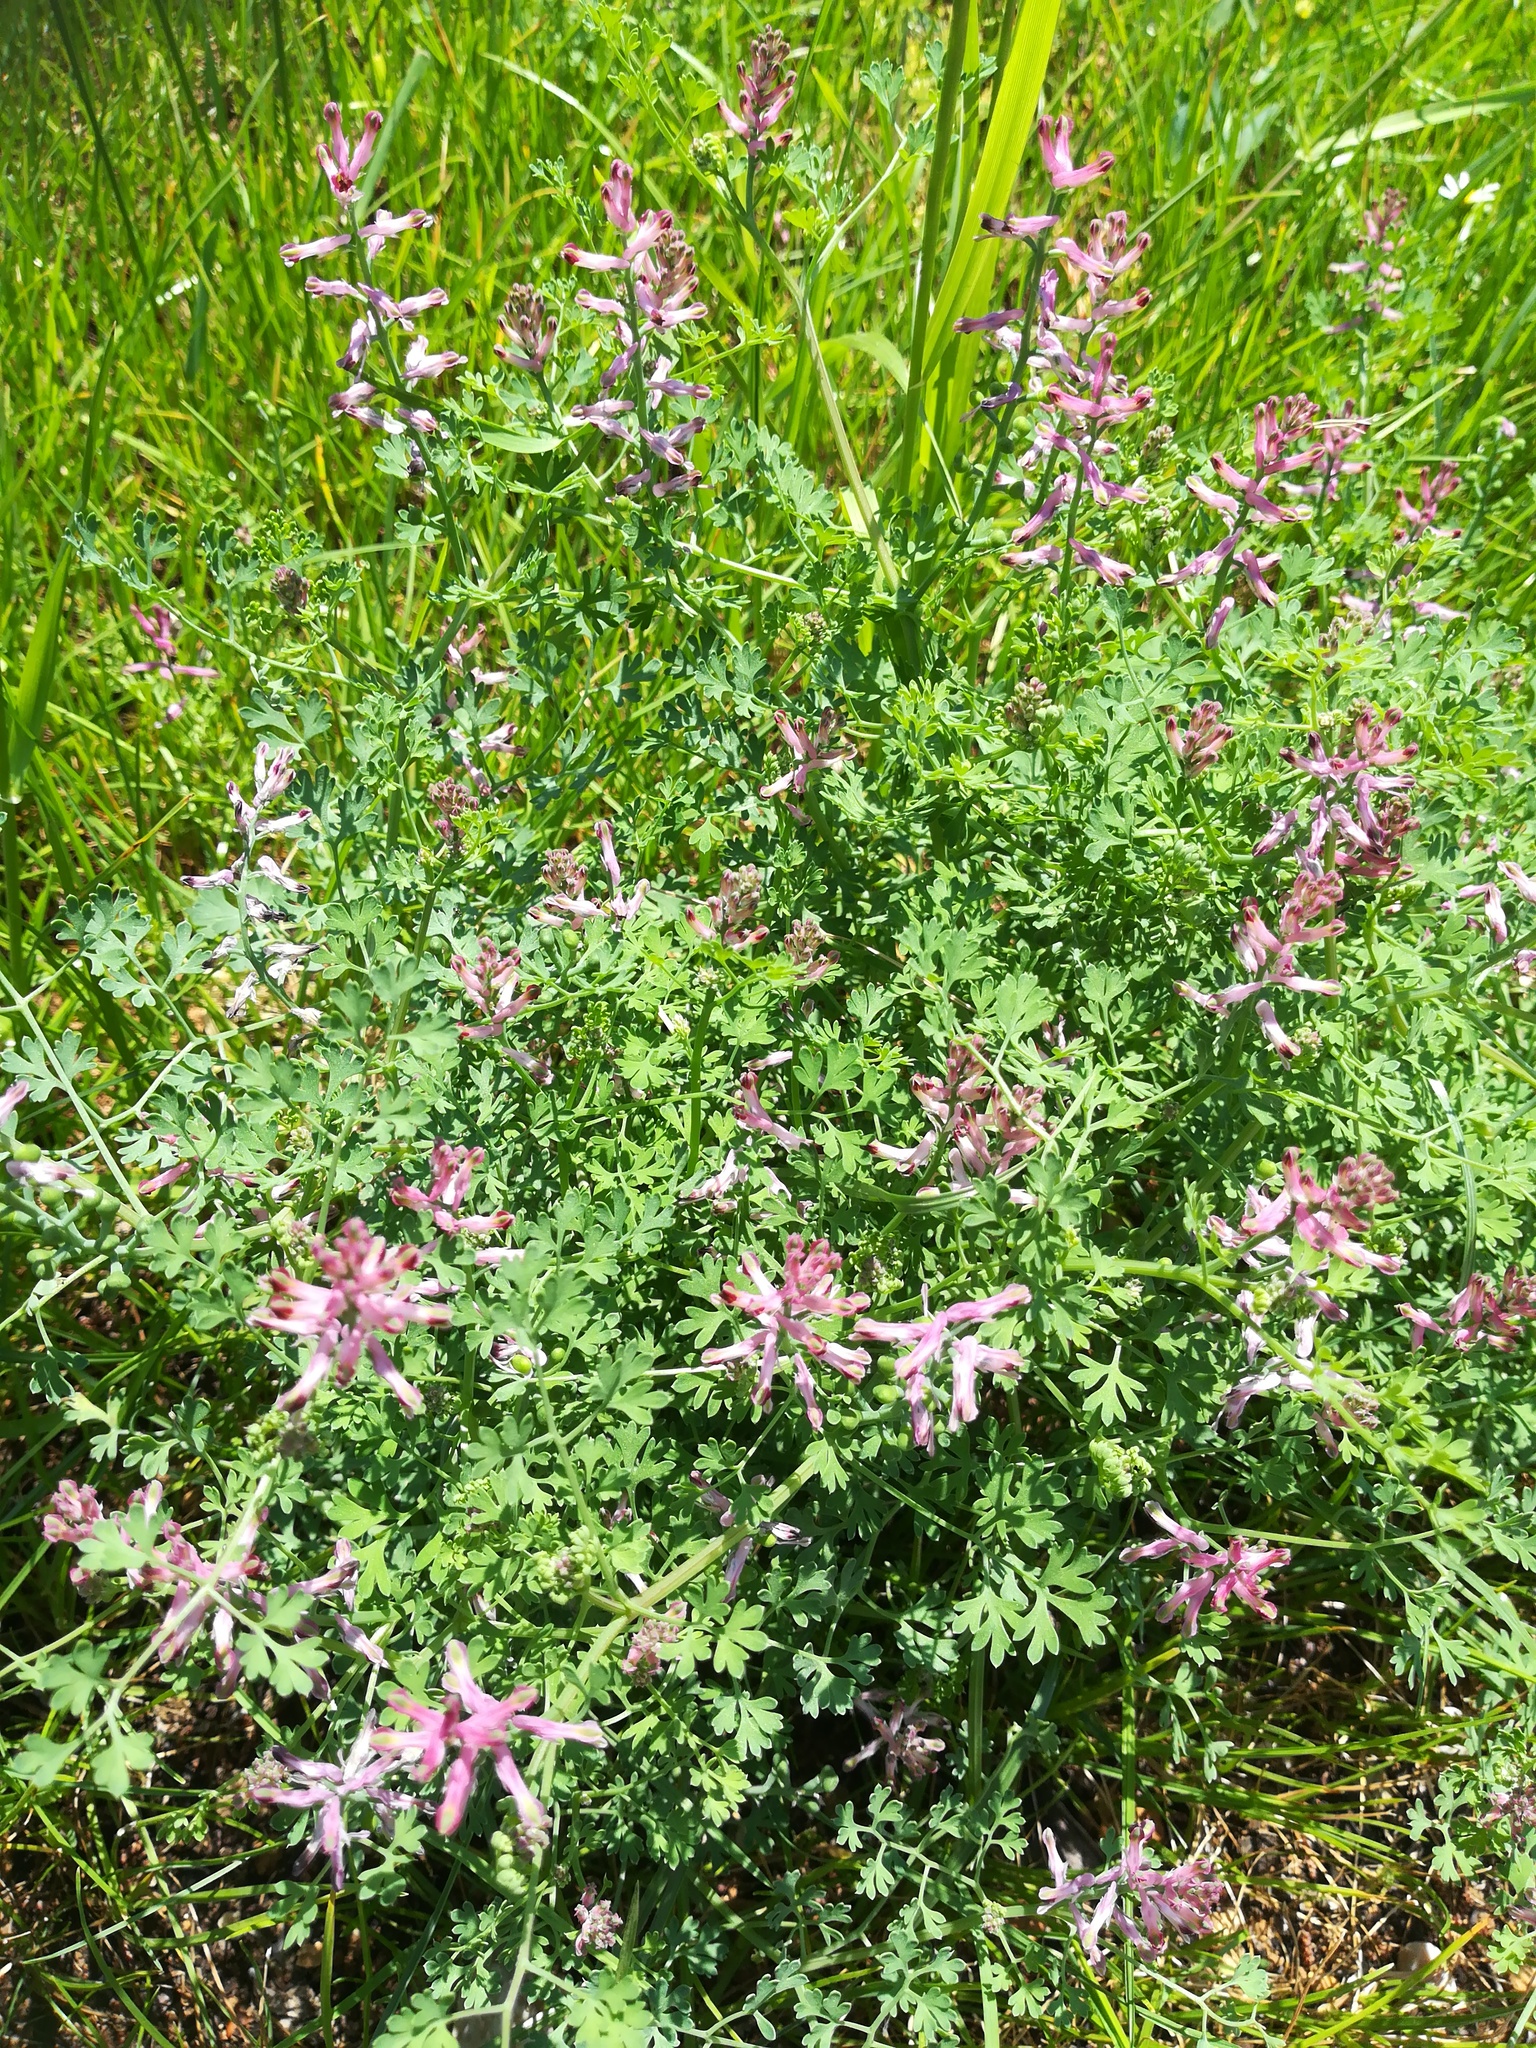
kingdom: Plantae
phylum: Tracheophyta
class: Magnoliopsida
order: Ranunculales
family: Papaveraceae
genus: Fumaria
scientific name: Fumaria officinalis
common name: Common fumitory
